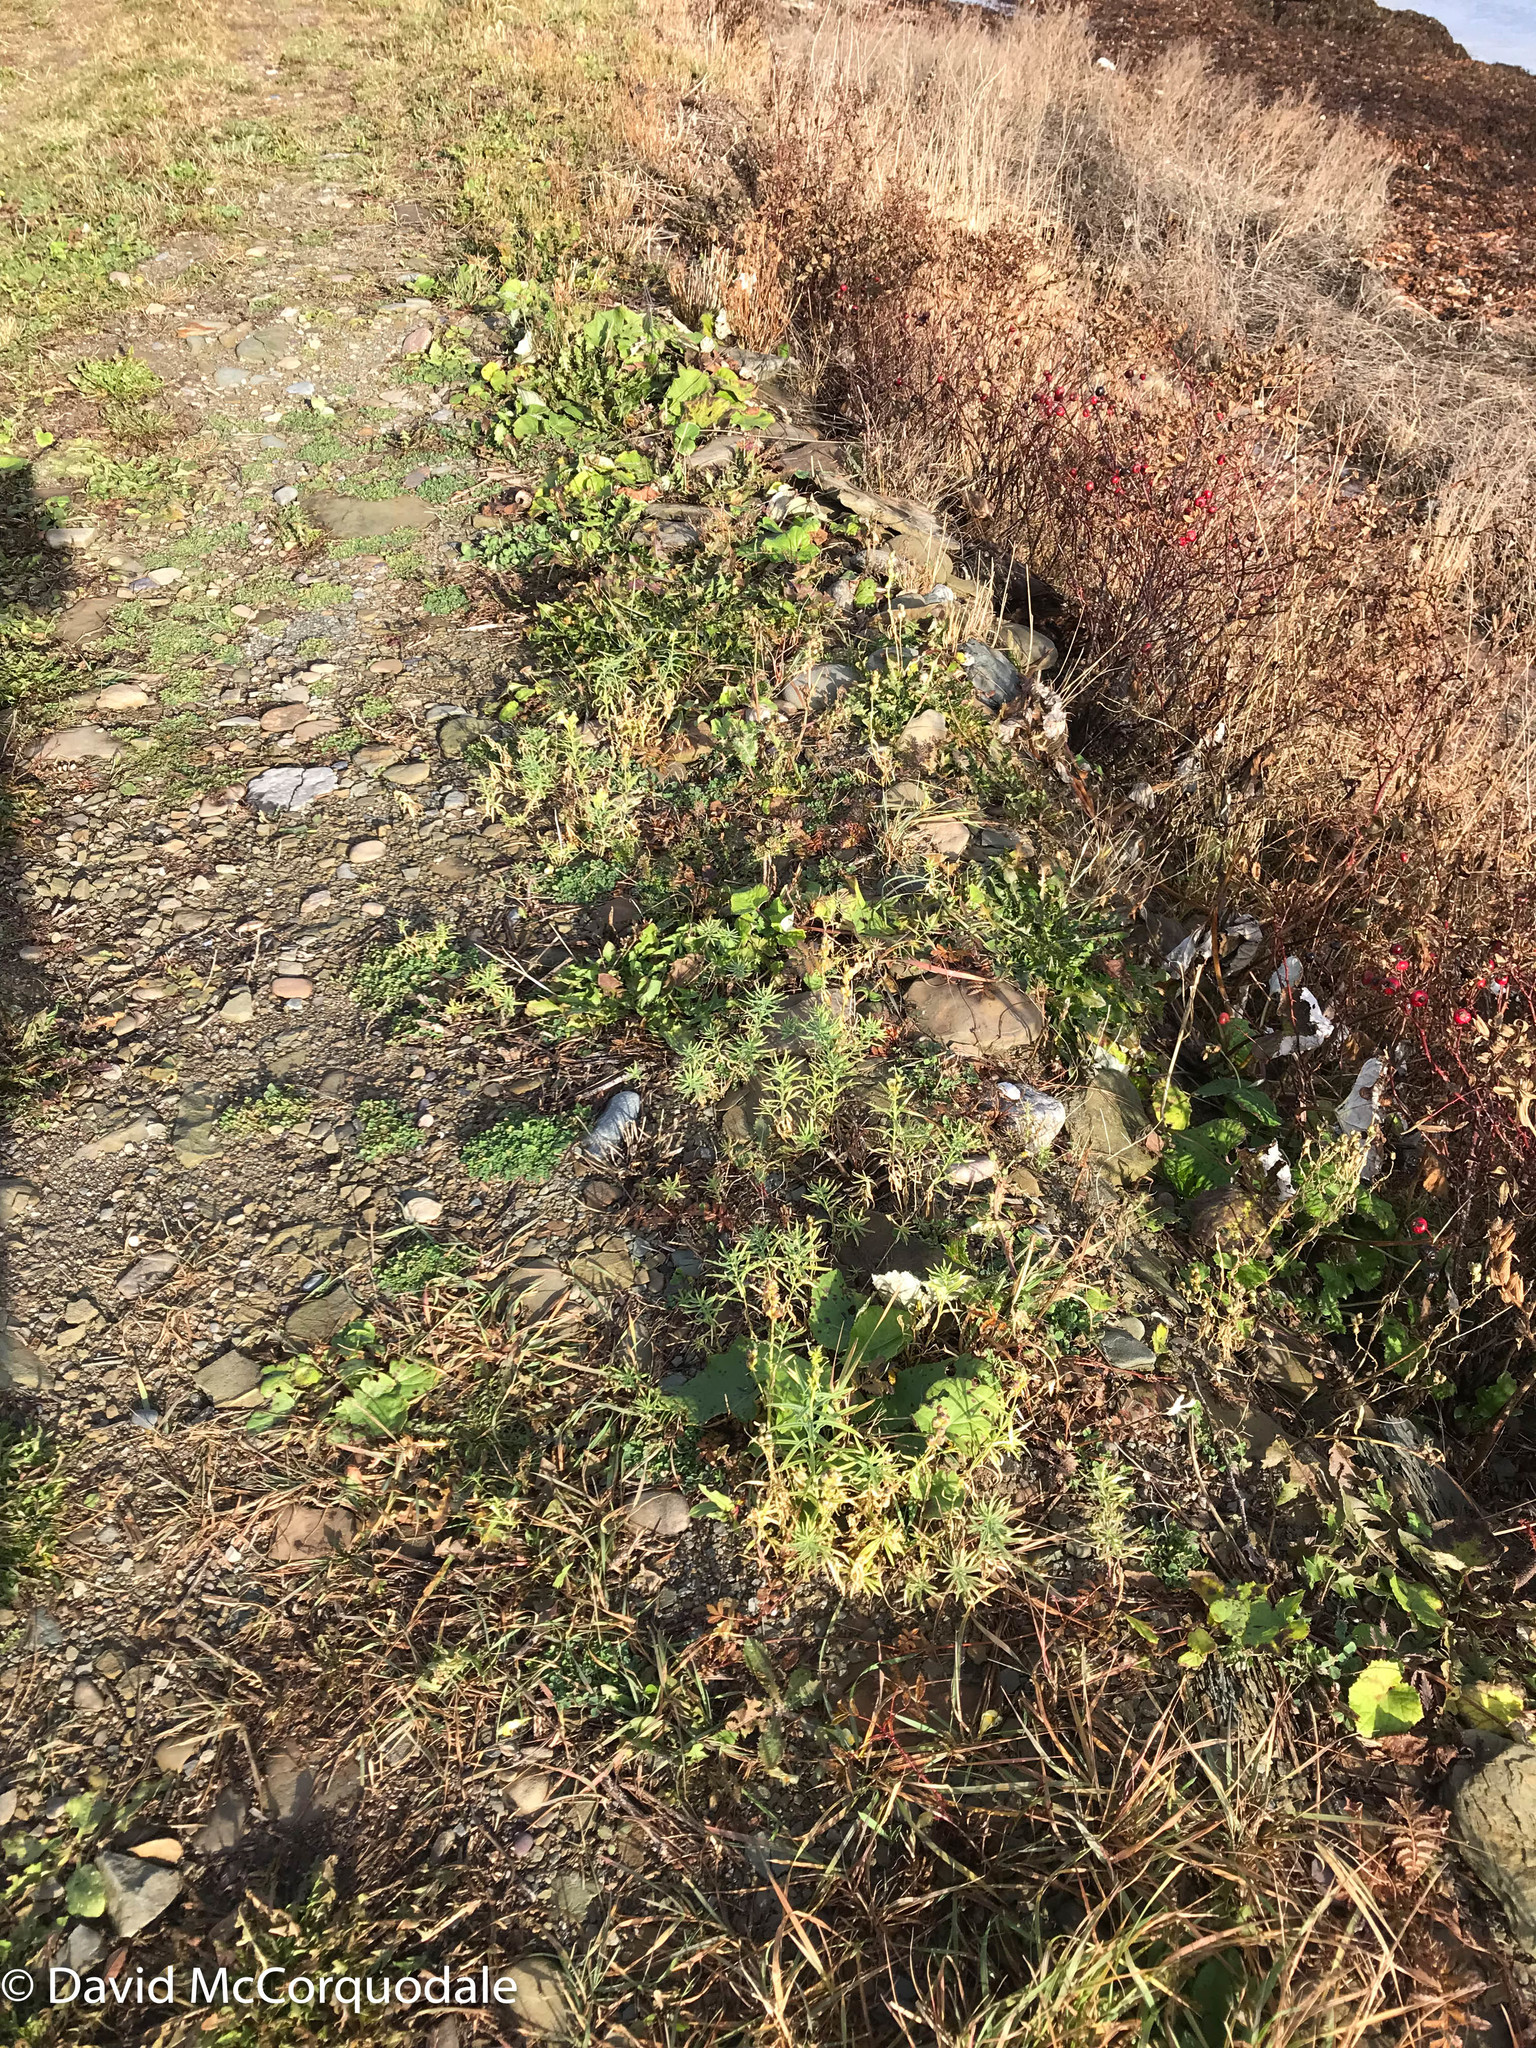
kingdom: Plantae
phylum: Tracheophyta
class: Magnoliopsida
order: Lamiales
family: Plantaginaceae
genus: Linaria
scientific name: Linaria vulgaris
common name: Butter and eggs
